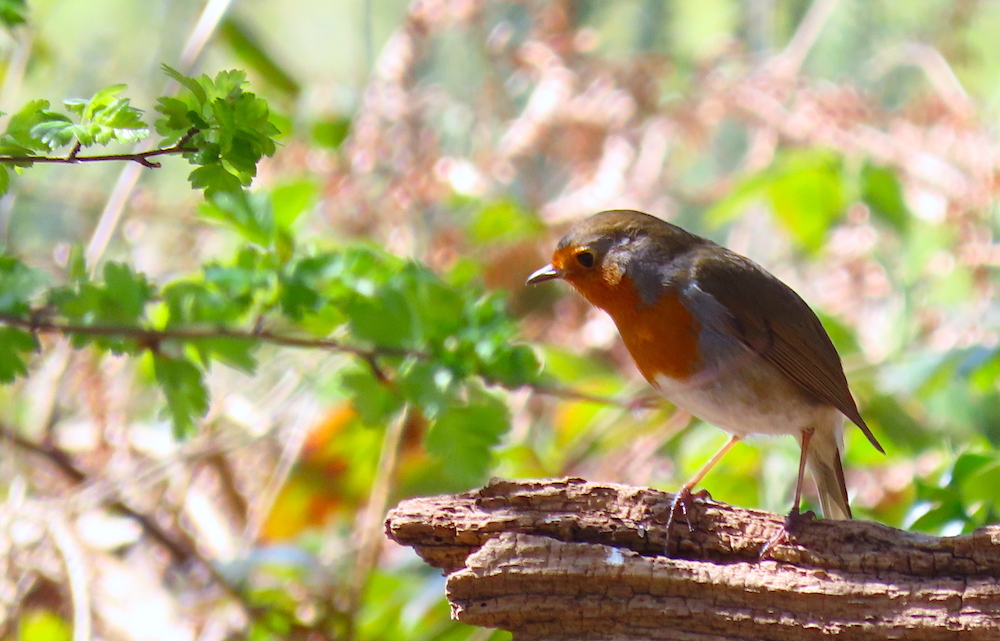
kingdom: Animalia
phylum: Chordata
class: Aves
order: Passeriformes
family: Muscicapidae
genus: Erithacus
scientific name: Erithacus rubecula
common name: European robin
